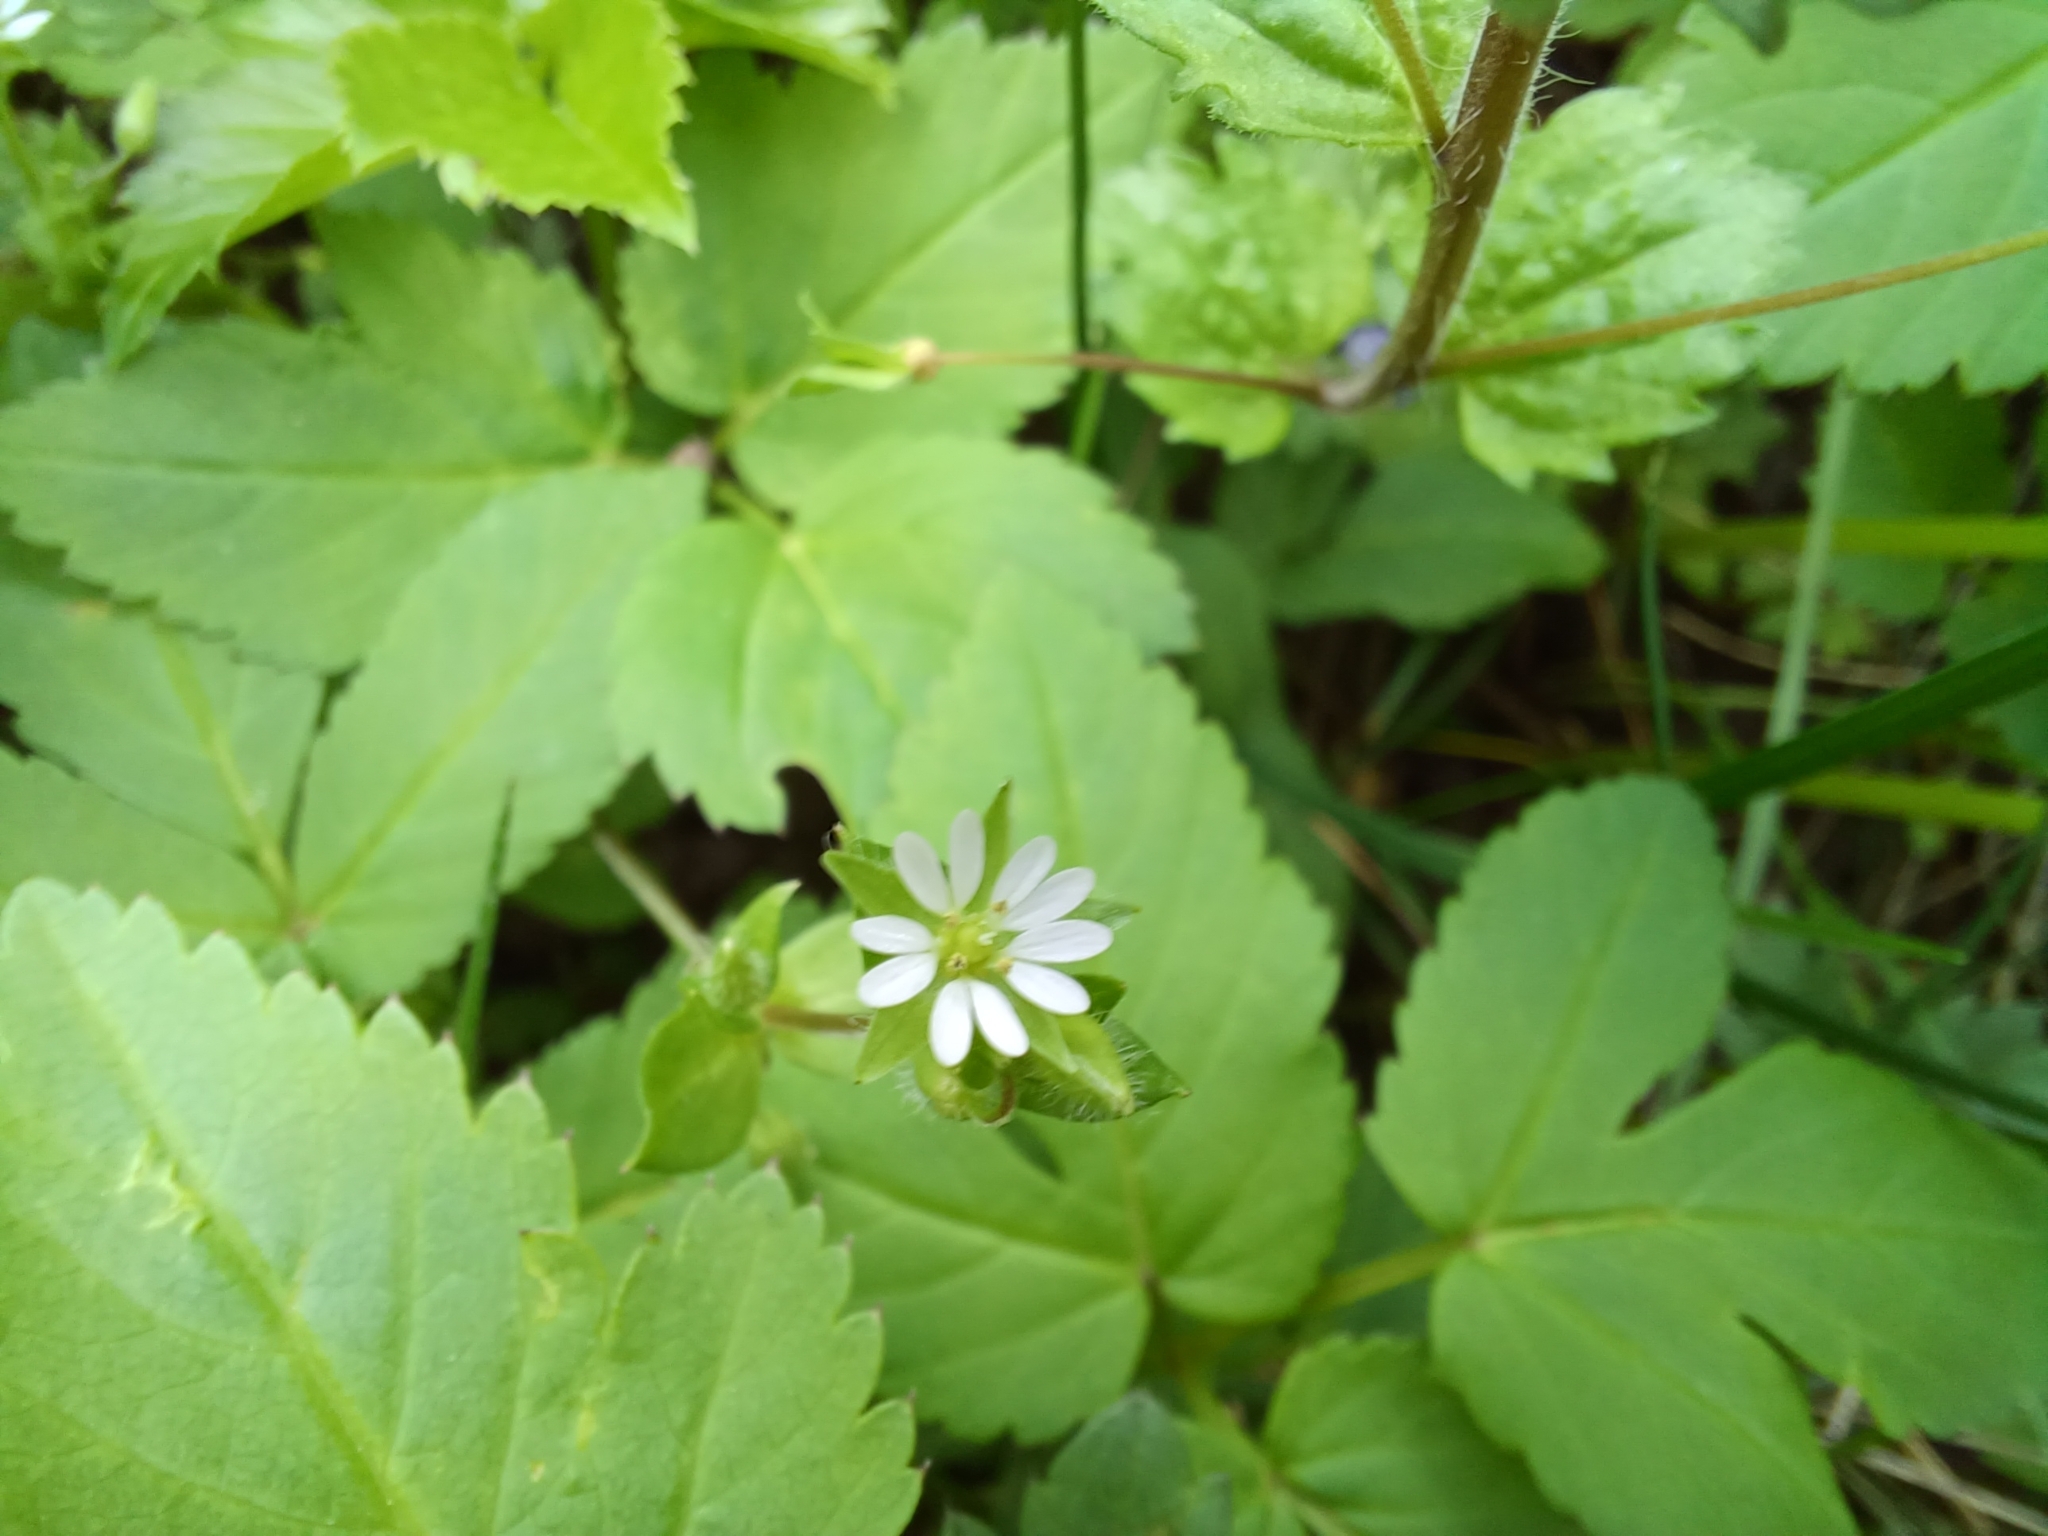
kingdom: Plantae
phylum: Tracheophyta
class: Magnoliopsida
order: Caryophyllales
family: Caryophyllaceae
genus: Stellaria
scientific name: Stellaria media
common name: Common chickweed
